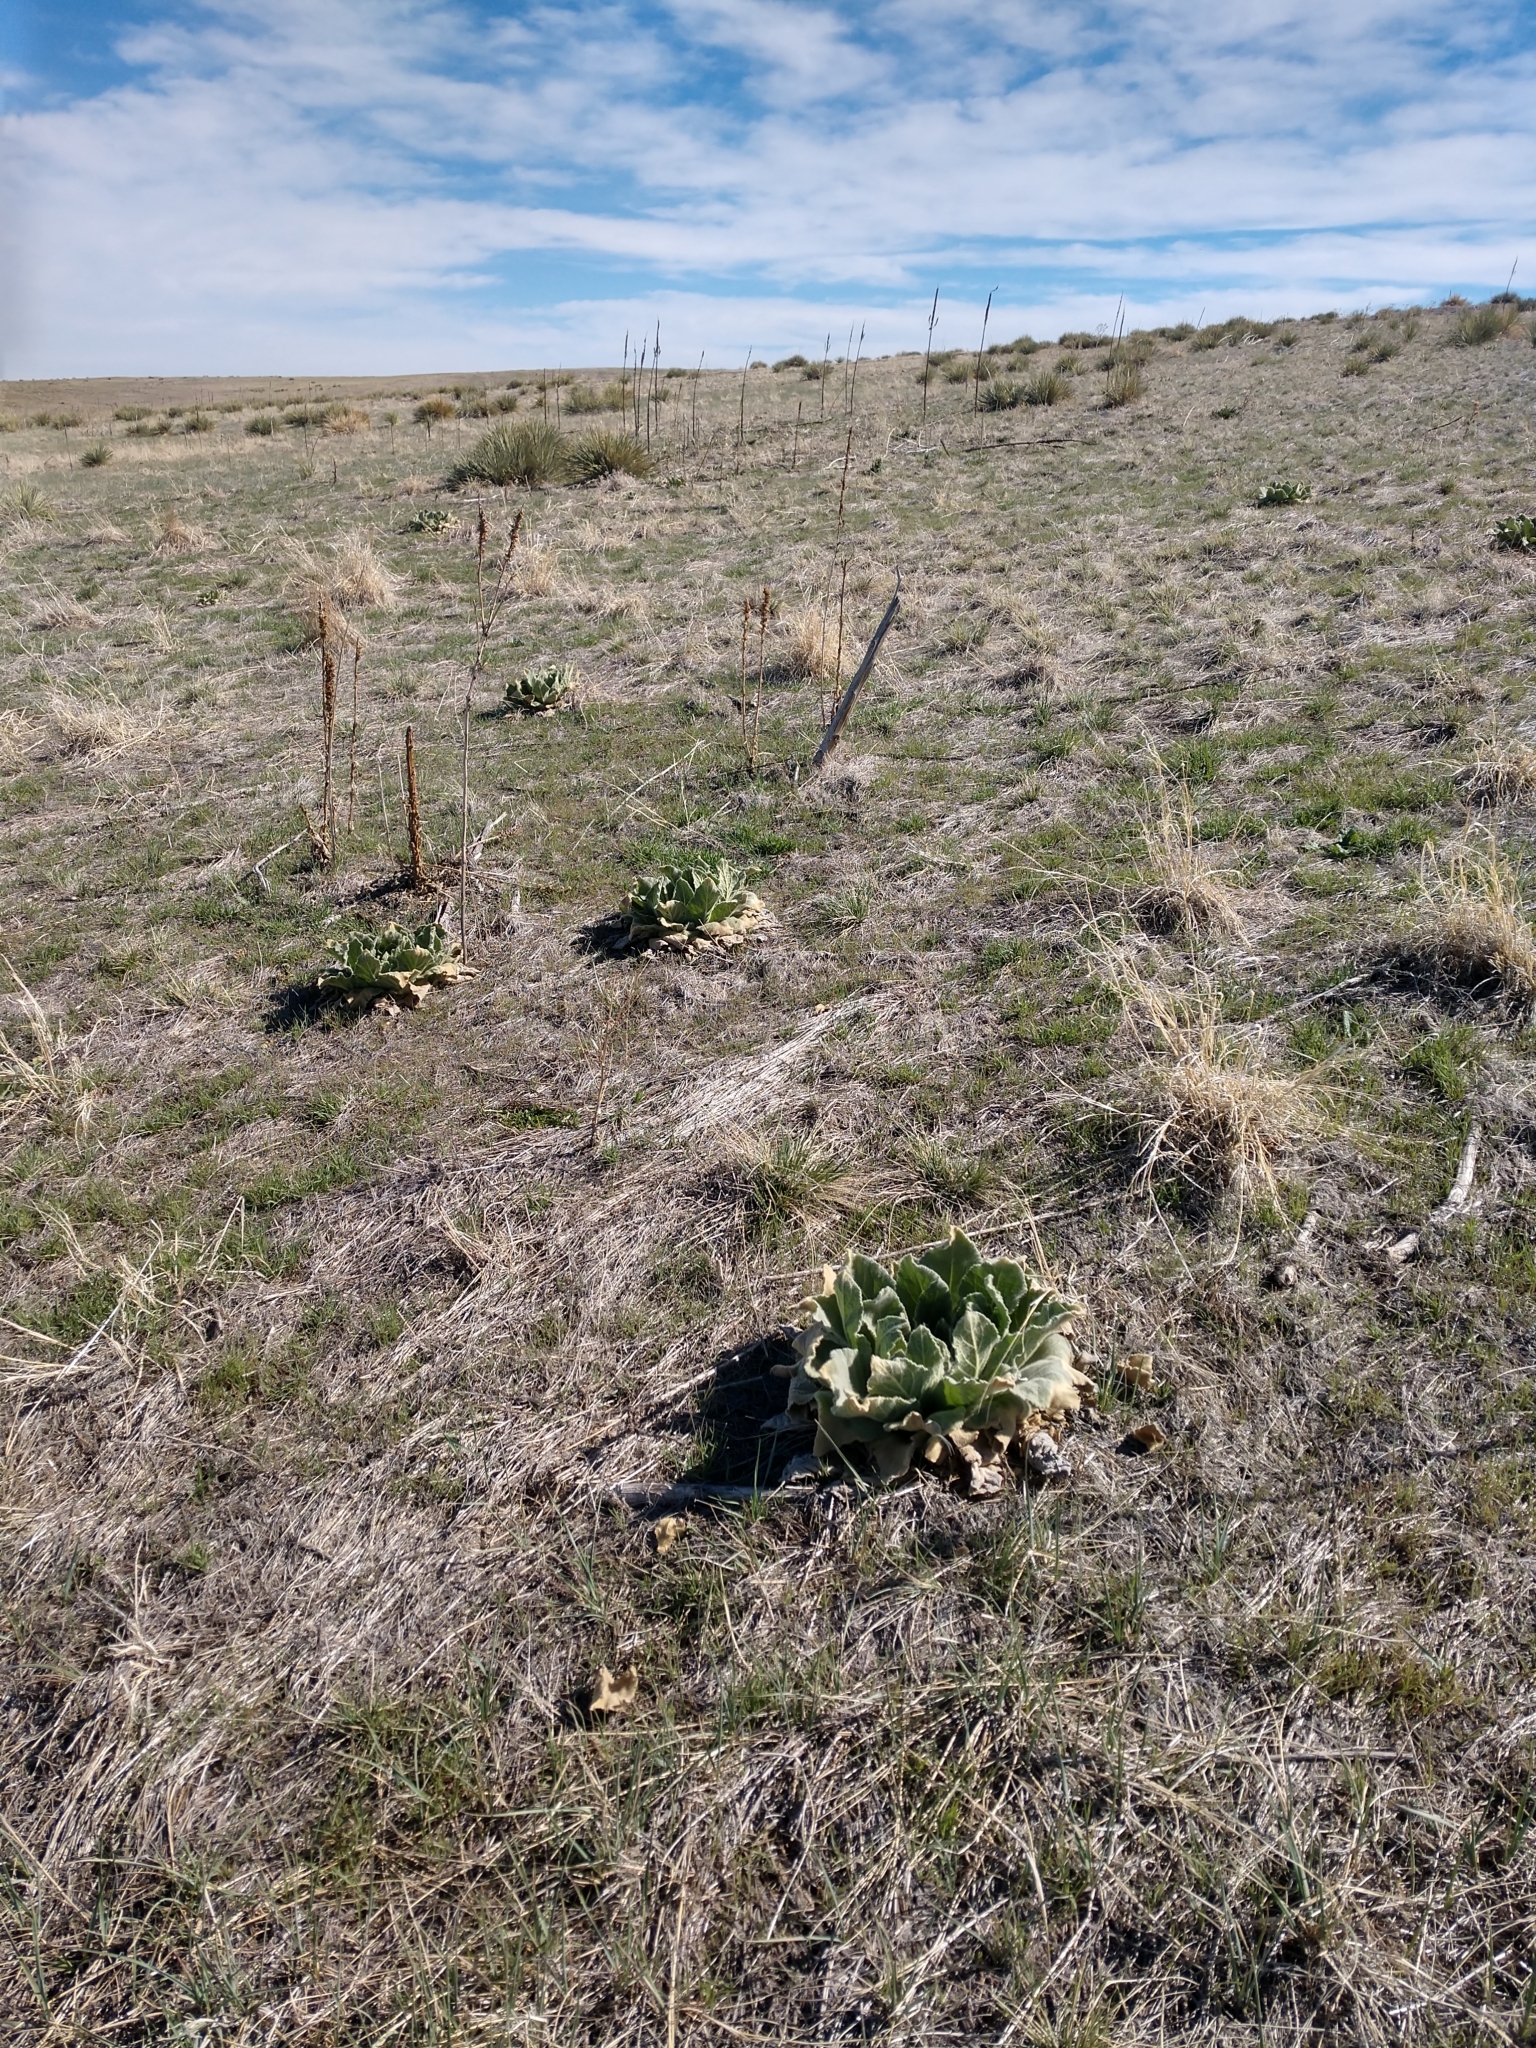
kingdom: Plantae
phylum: Tracheophyta
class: Magnoliopsida
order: Lamiales
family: Scrophulariaceae
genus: Verbascum
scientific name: Verbascum thapsus
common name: Common mullein
